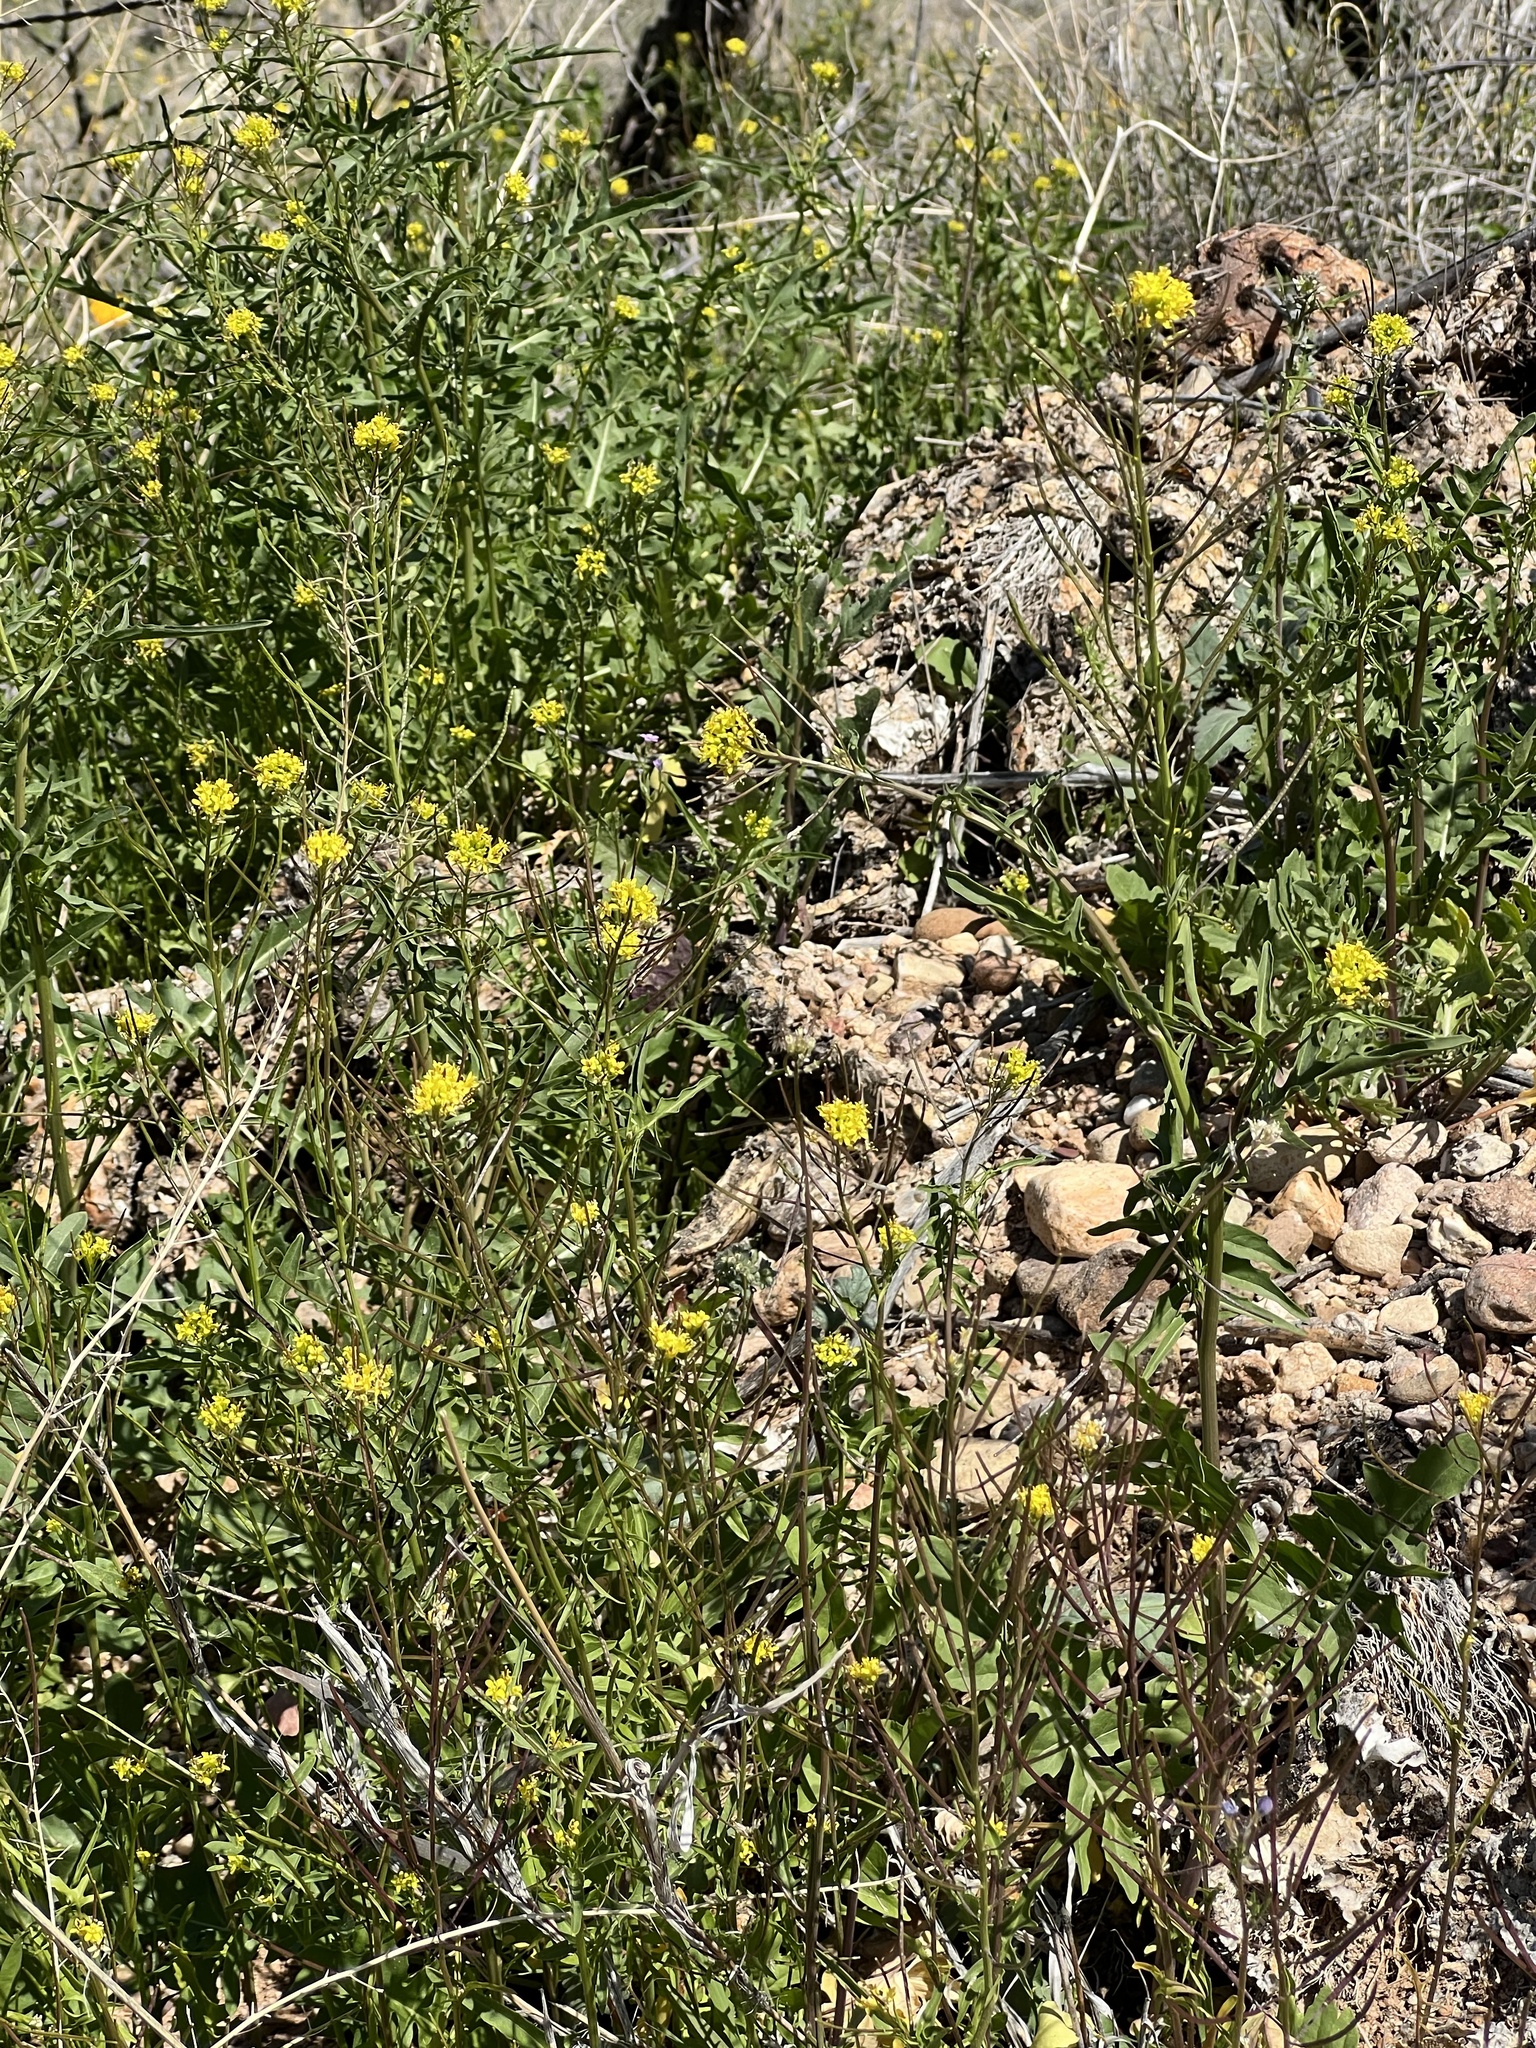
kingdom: Plantae
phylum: Tracheophyta
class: Magnoliopsida
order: Brassicales
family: Brassicaceae
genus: Sisymbrium
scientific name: Sisymbrium irio
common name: London rocket
